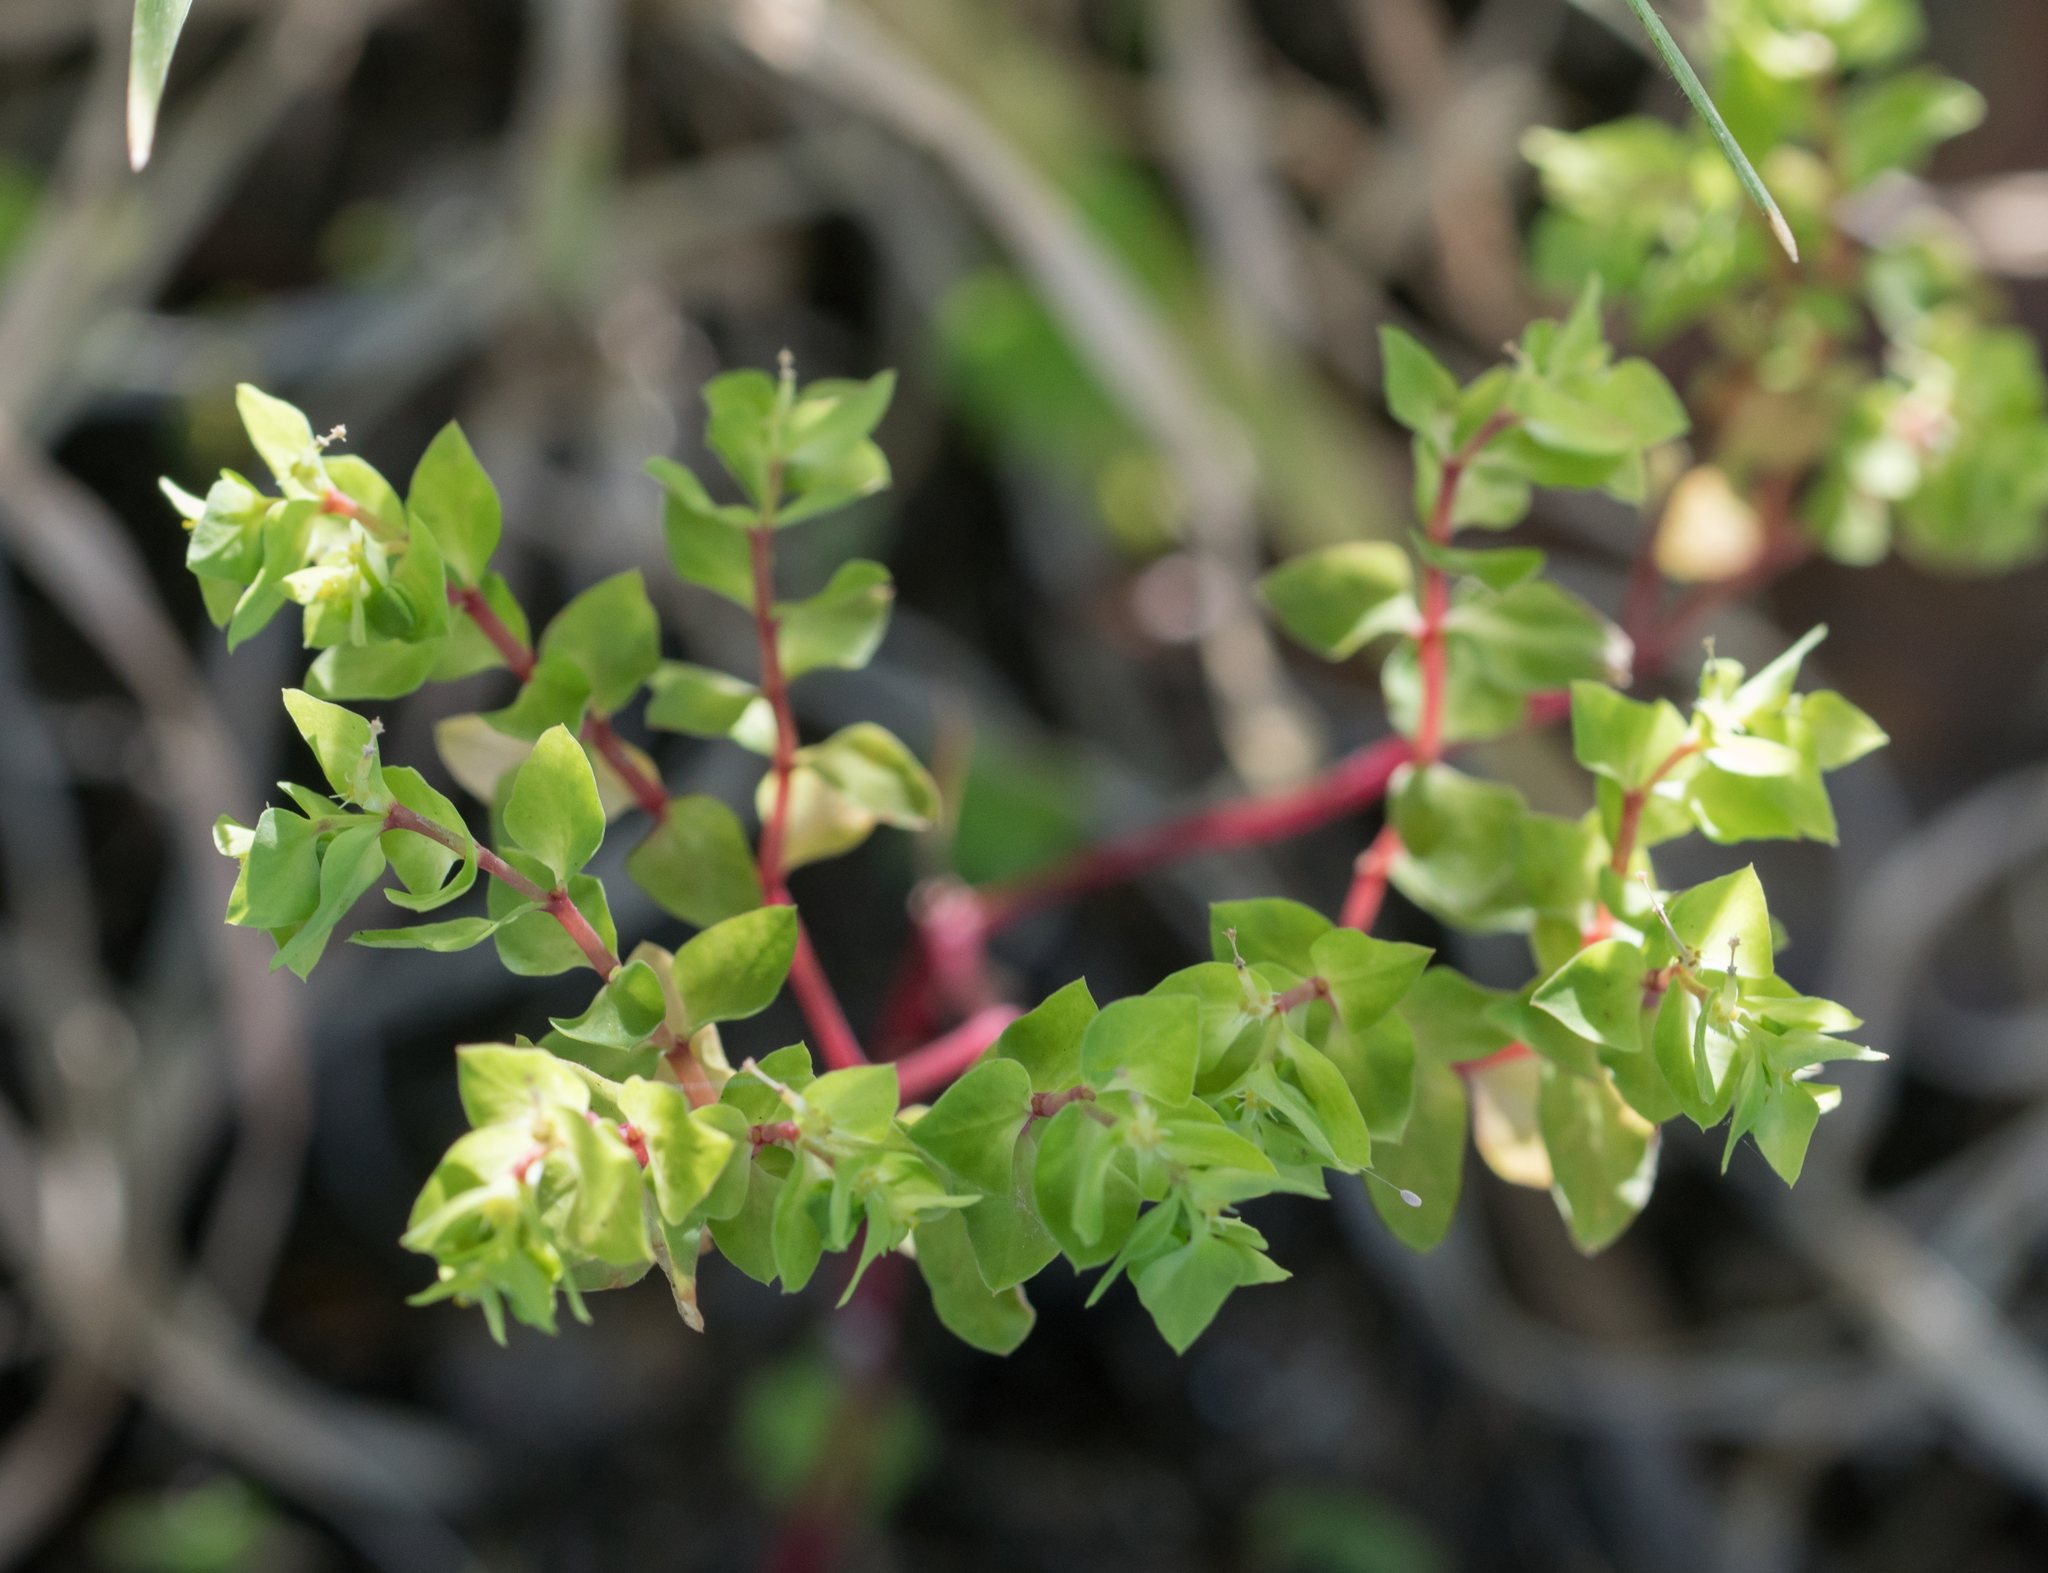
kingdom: Plantae
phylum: Tracheophyta
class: Magnoliopsida
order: Malpighiales
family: Euphorbiaceae
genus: Euphorbia
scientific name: Euphorbia peplus
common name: Petty spurge
